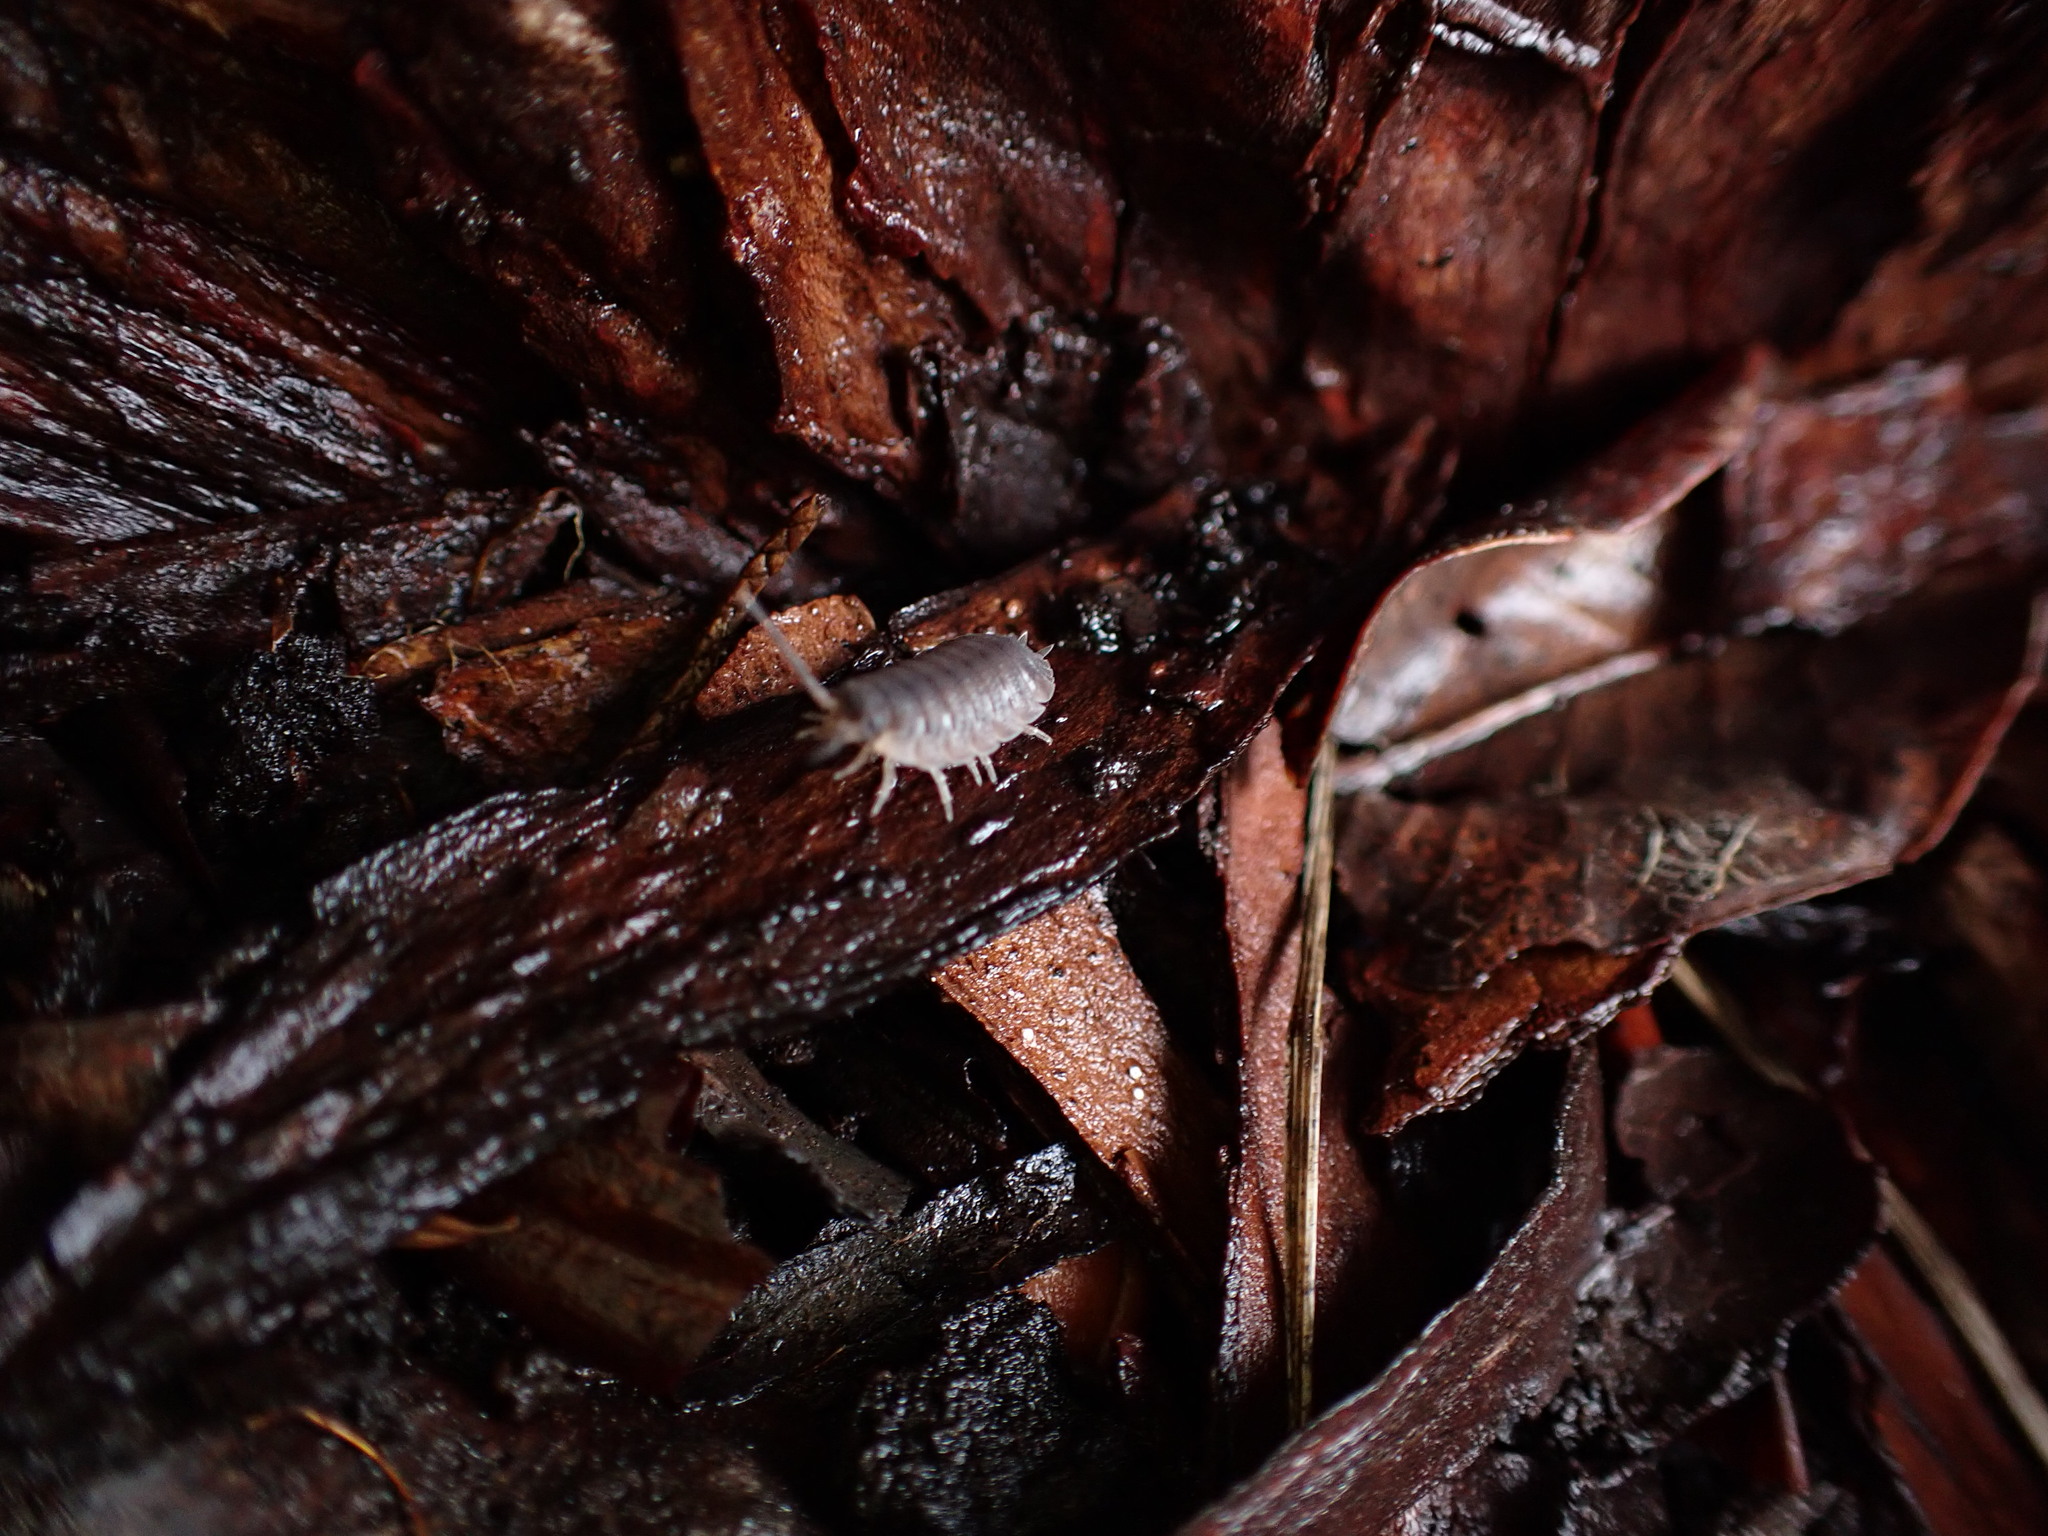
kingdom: Animalia
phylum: Arthropoda
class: Malacostraca
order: Isopoda
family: Porcellionidae
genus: Porcellio
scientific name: Porcellio scaber
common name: Common rough woodlouse
